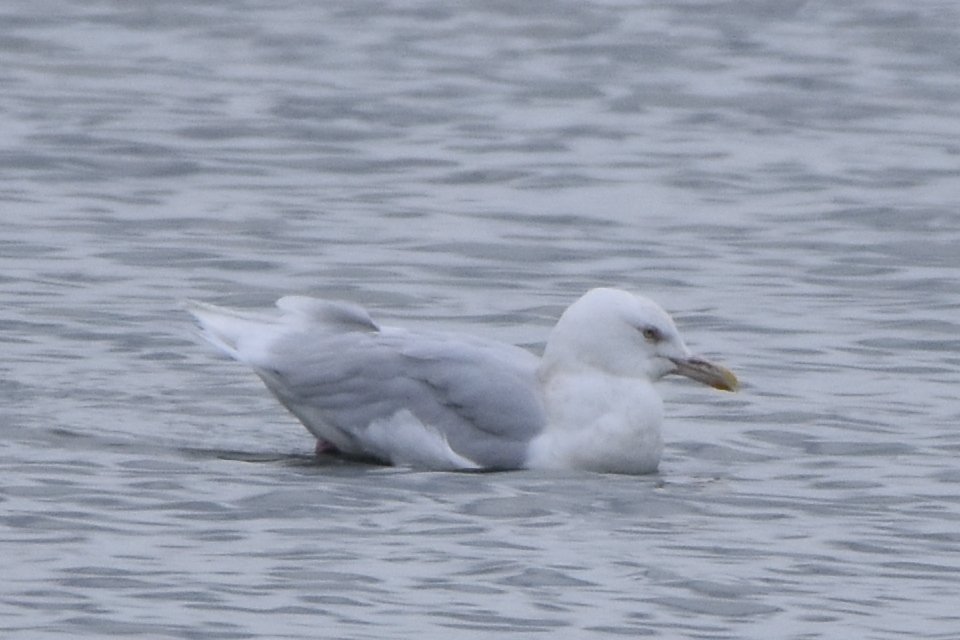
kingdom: Animalia
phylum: Chordata
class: Aves
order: Charadriiformes
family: Laridae
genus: Larus
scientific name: Larus hyperboreus
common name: Glaucous gull
